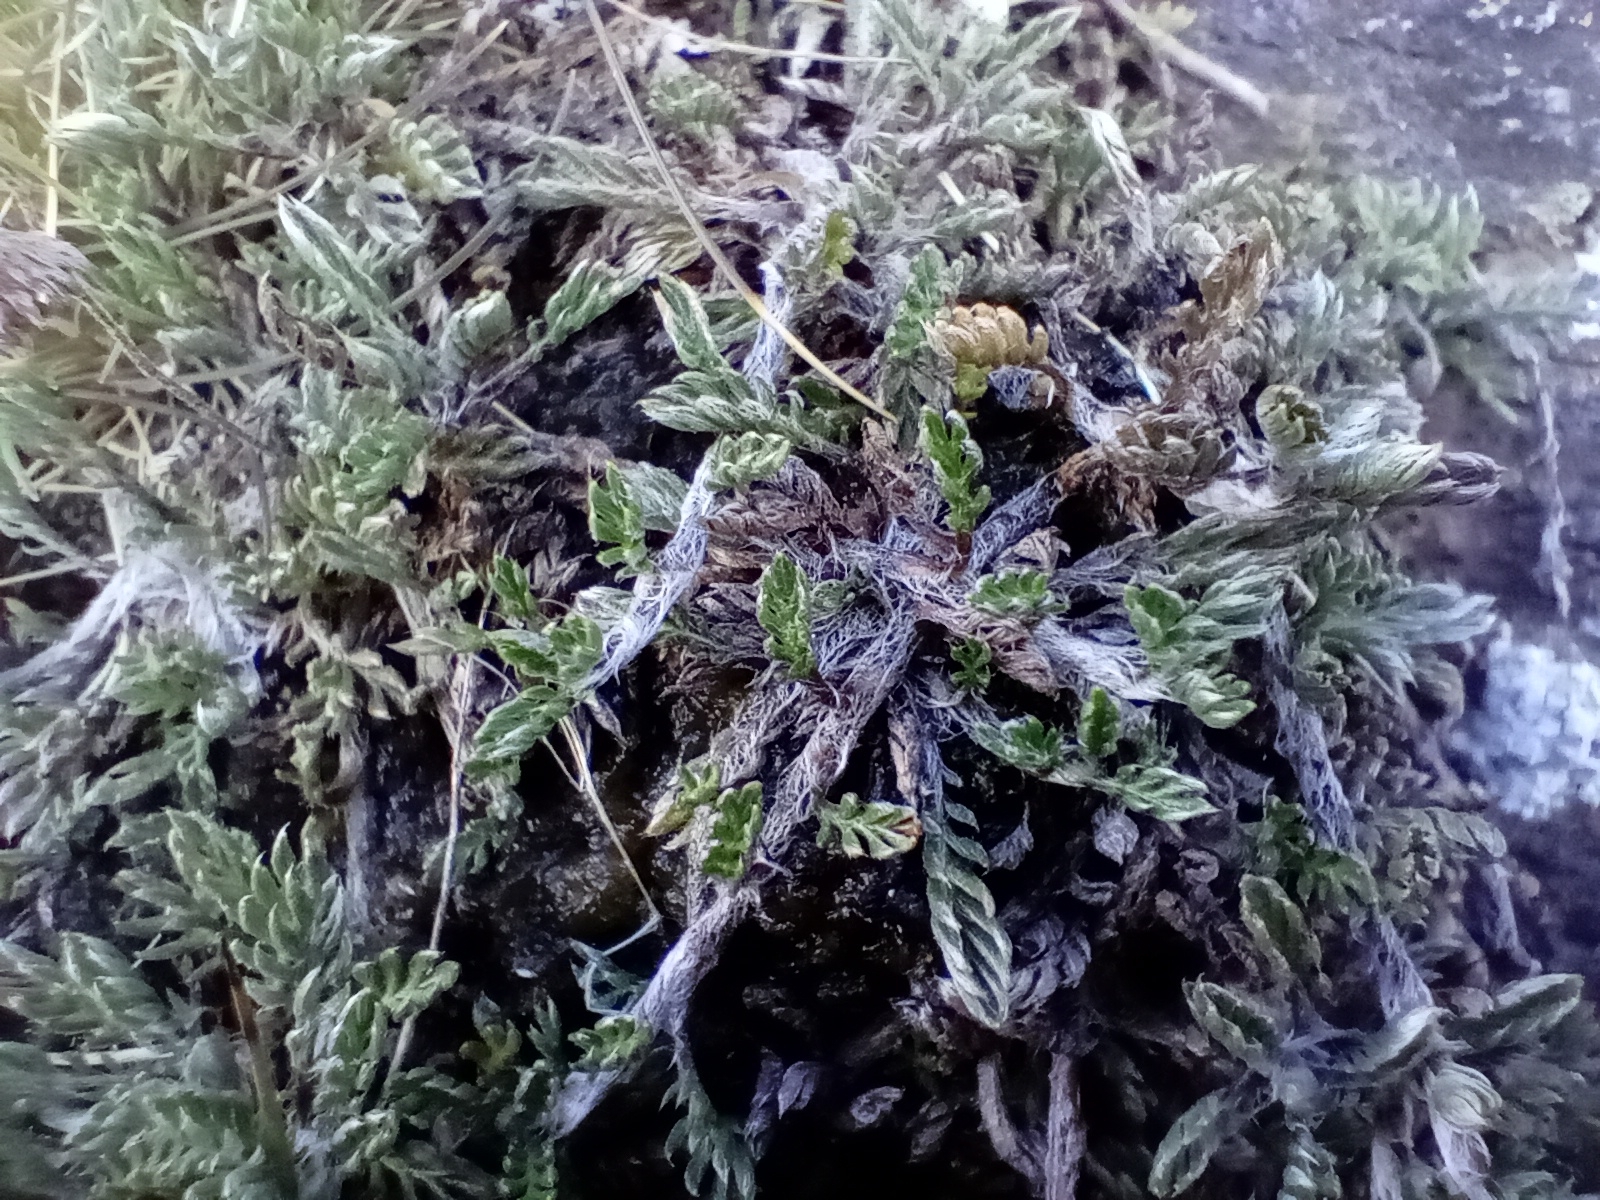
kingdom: Plantae
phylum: Tracheophyta
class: Magnoliopsida
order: Asterales
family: Asteraceae
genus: Leptinella
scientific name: Leptinella pectinata
